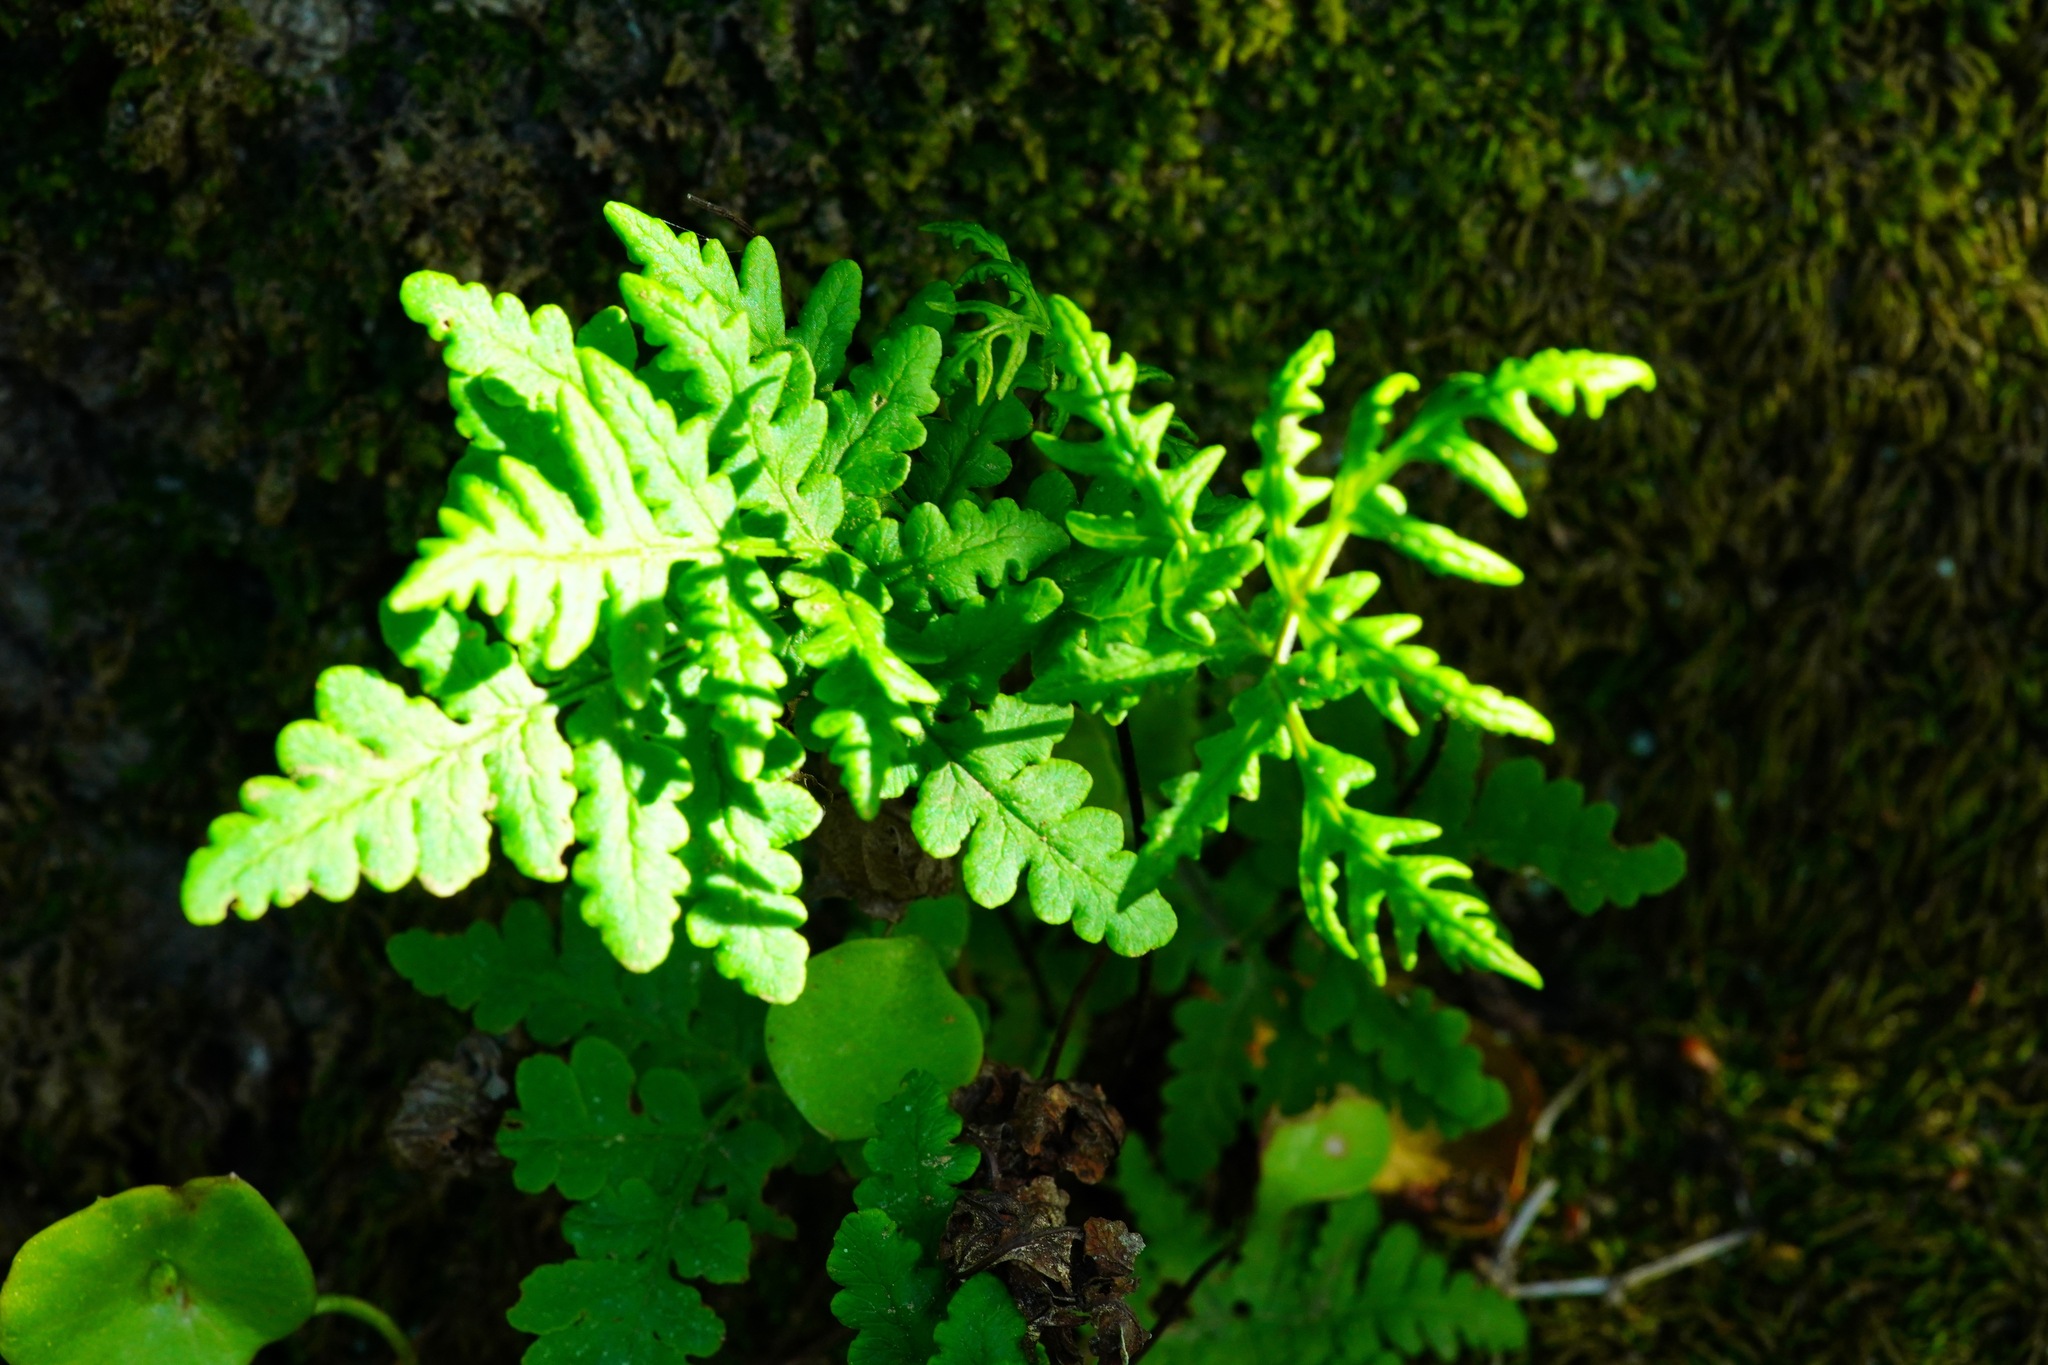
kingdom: Plantae
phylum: Tracheophyta
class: Polypodiopsida
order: Polypodiales
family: Pteridaceae
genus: Pentagramma
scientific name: Pentagramma triangularis
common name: Gold fern
